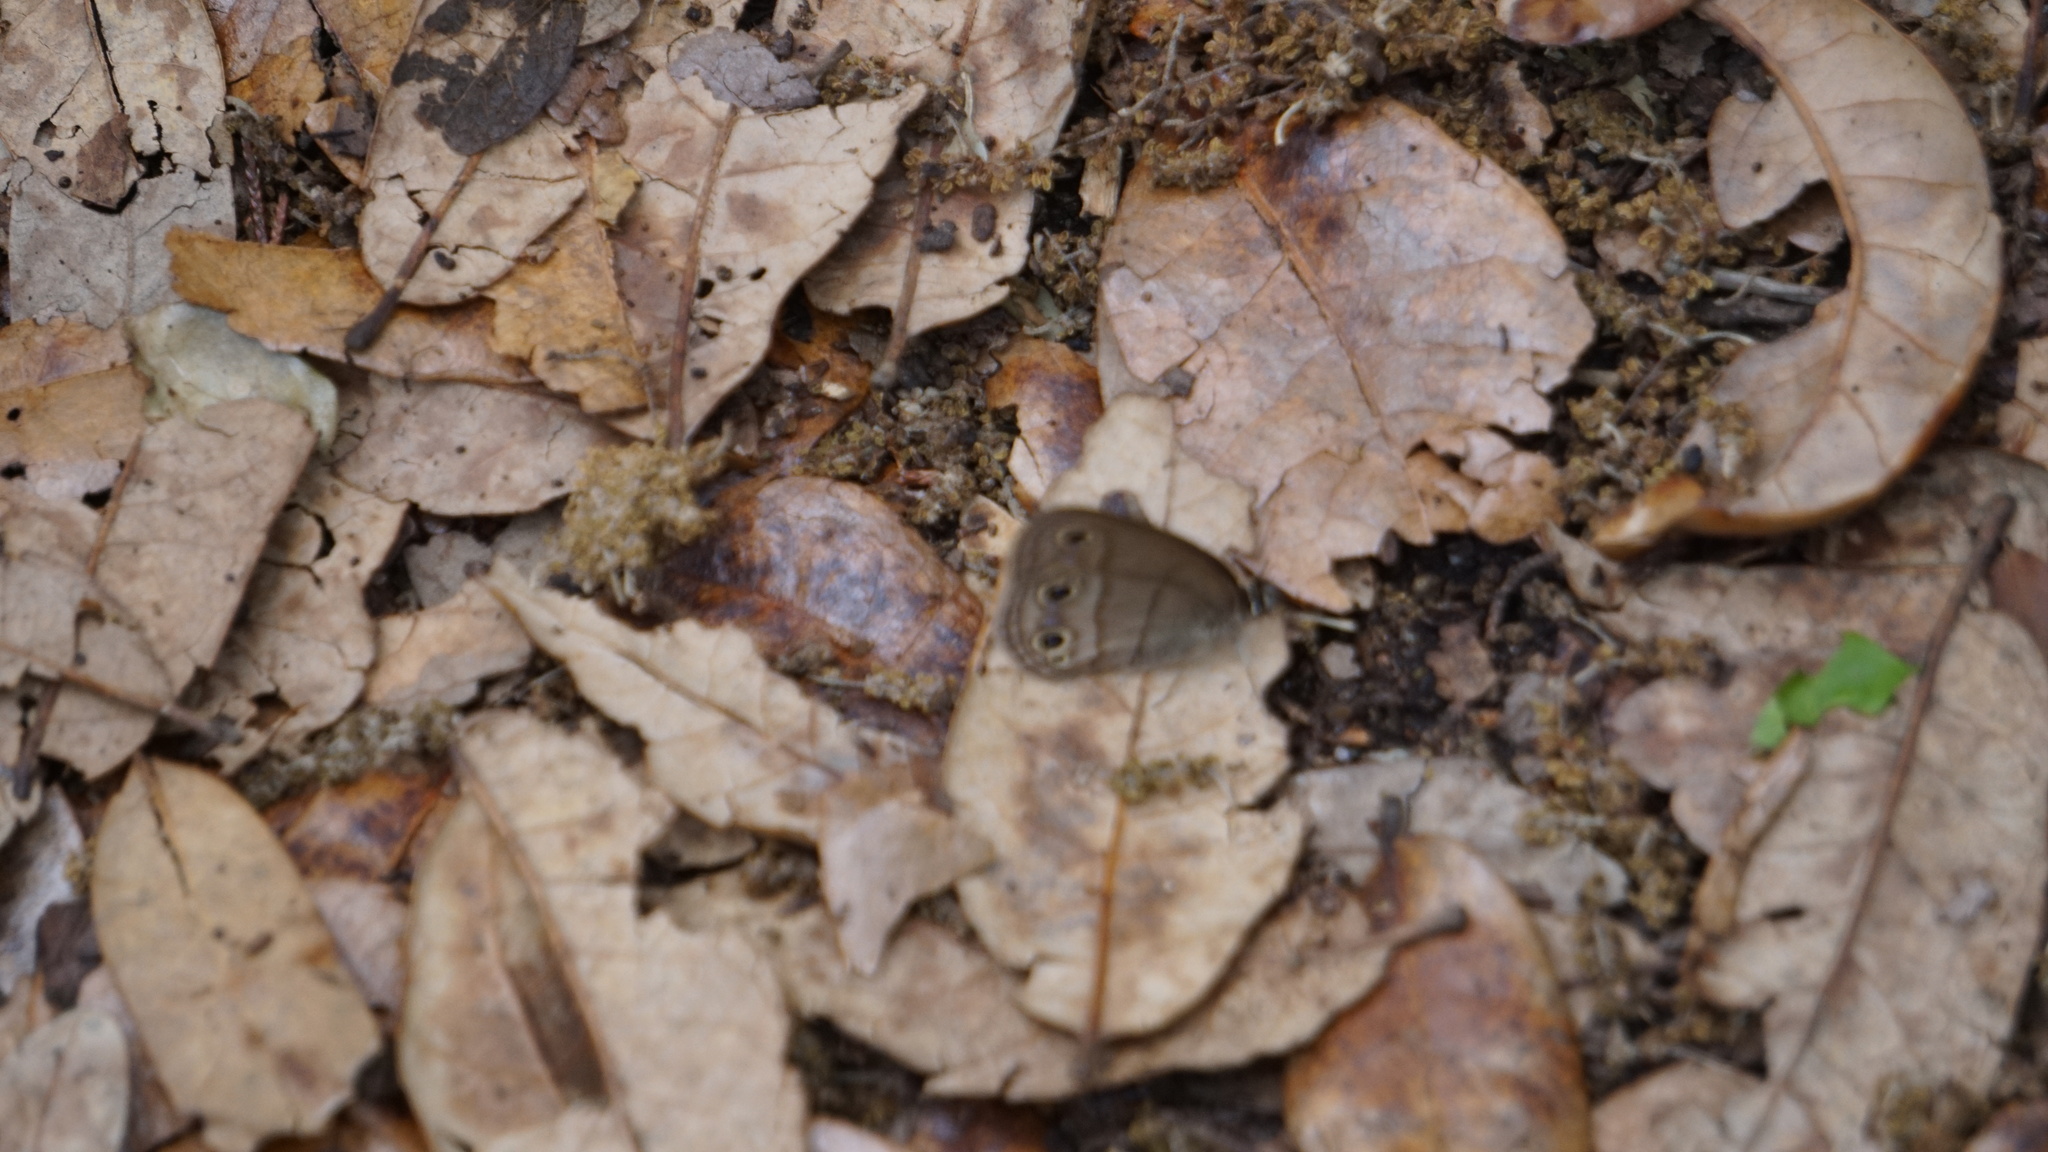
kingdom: Animalia
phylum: Arthropoda
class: Insecta
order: Lepidoptera
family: Nymphalidae
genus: Euptychia
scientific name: Euptychia Cissia rubricata
